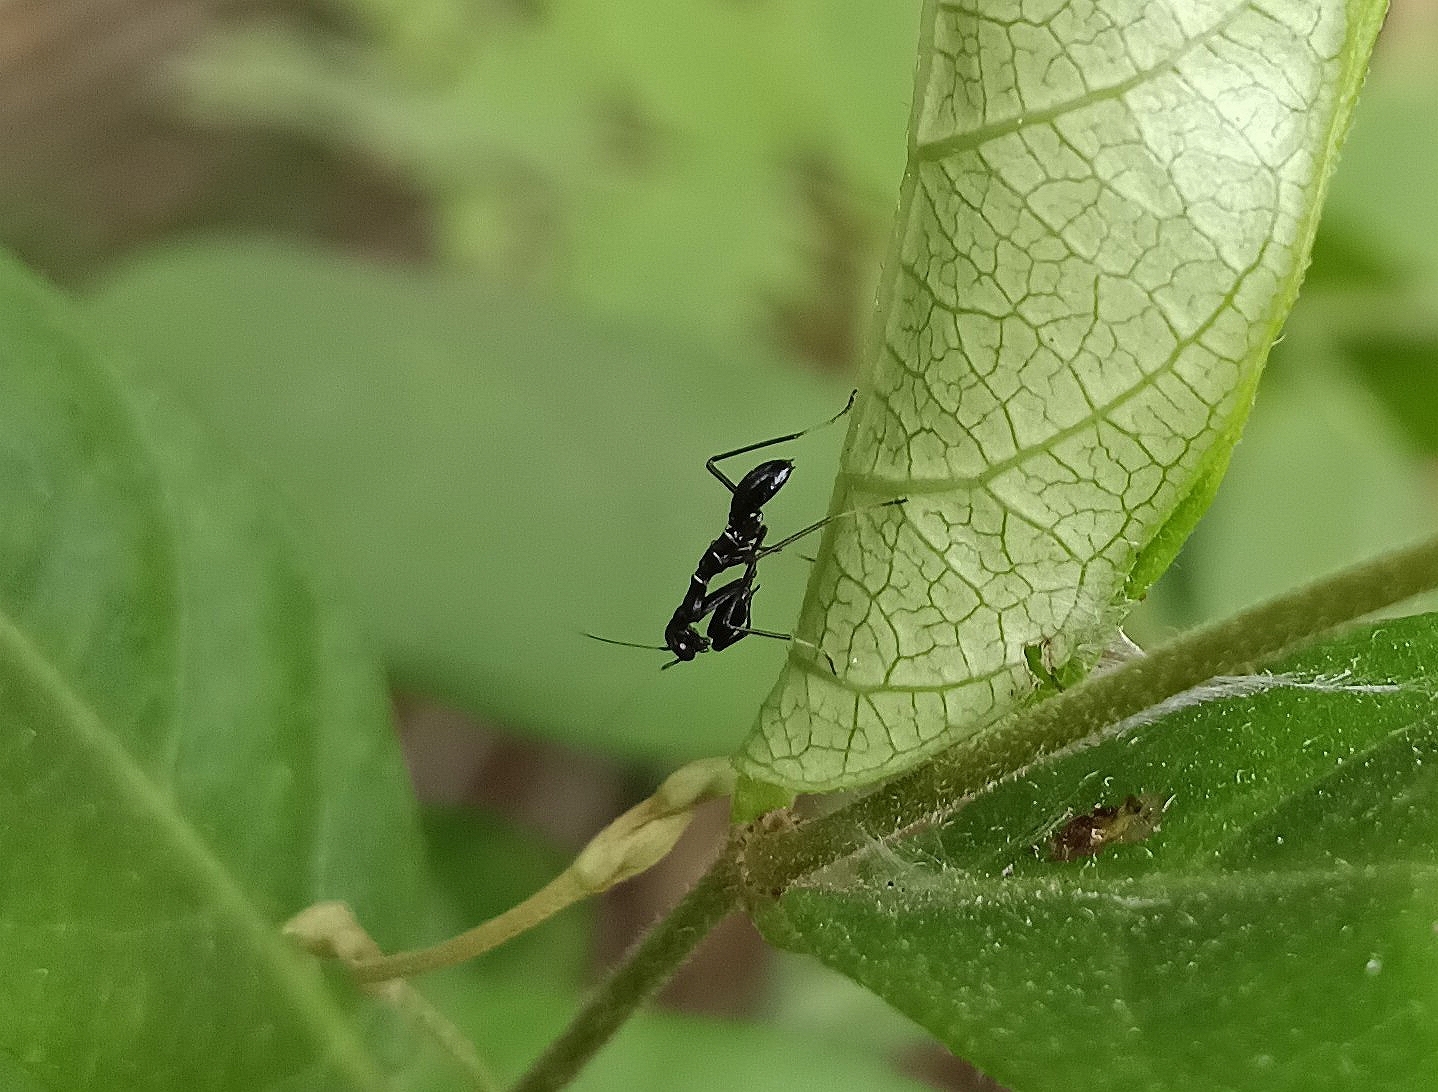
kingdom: Animalia
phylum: Arthropoda
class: Insecta
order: Mantodea
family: Hymenopodidae
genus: Odontomantis
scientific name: Odontomantis planiceps
